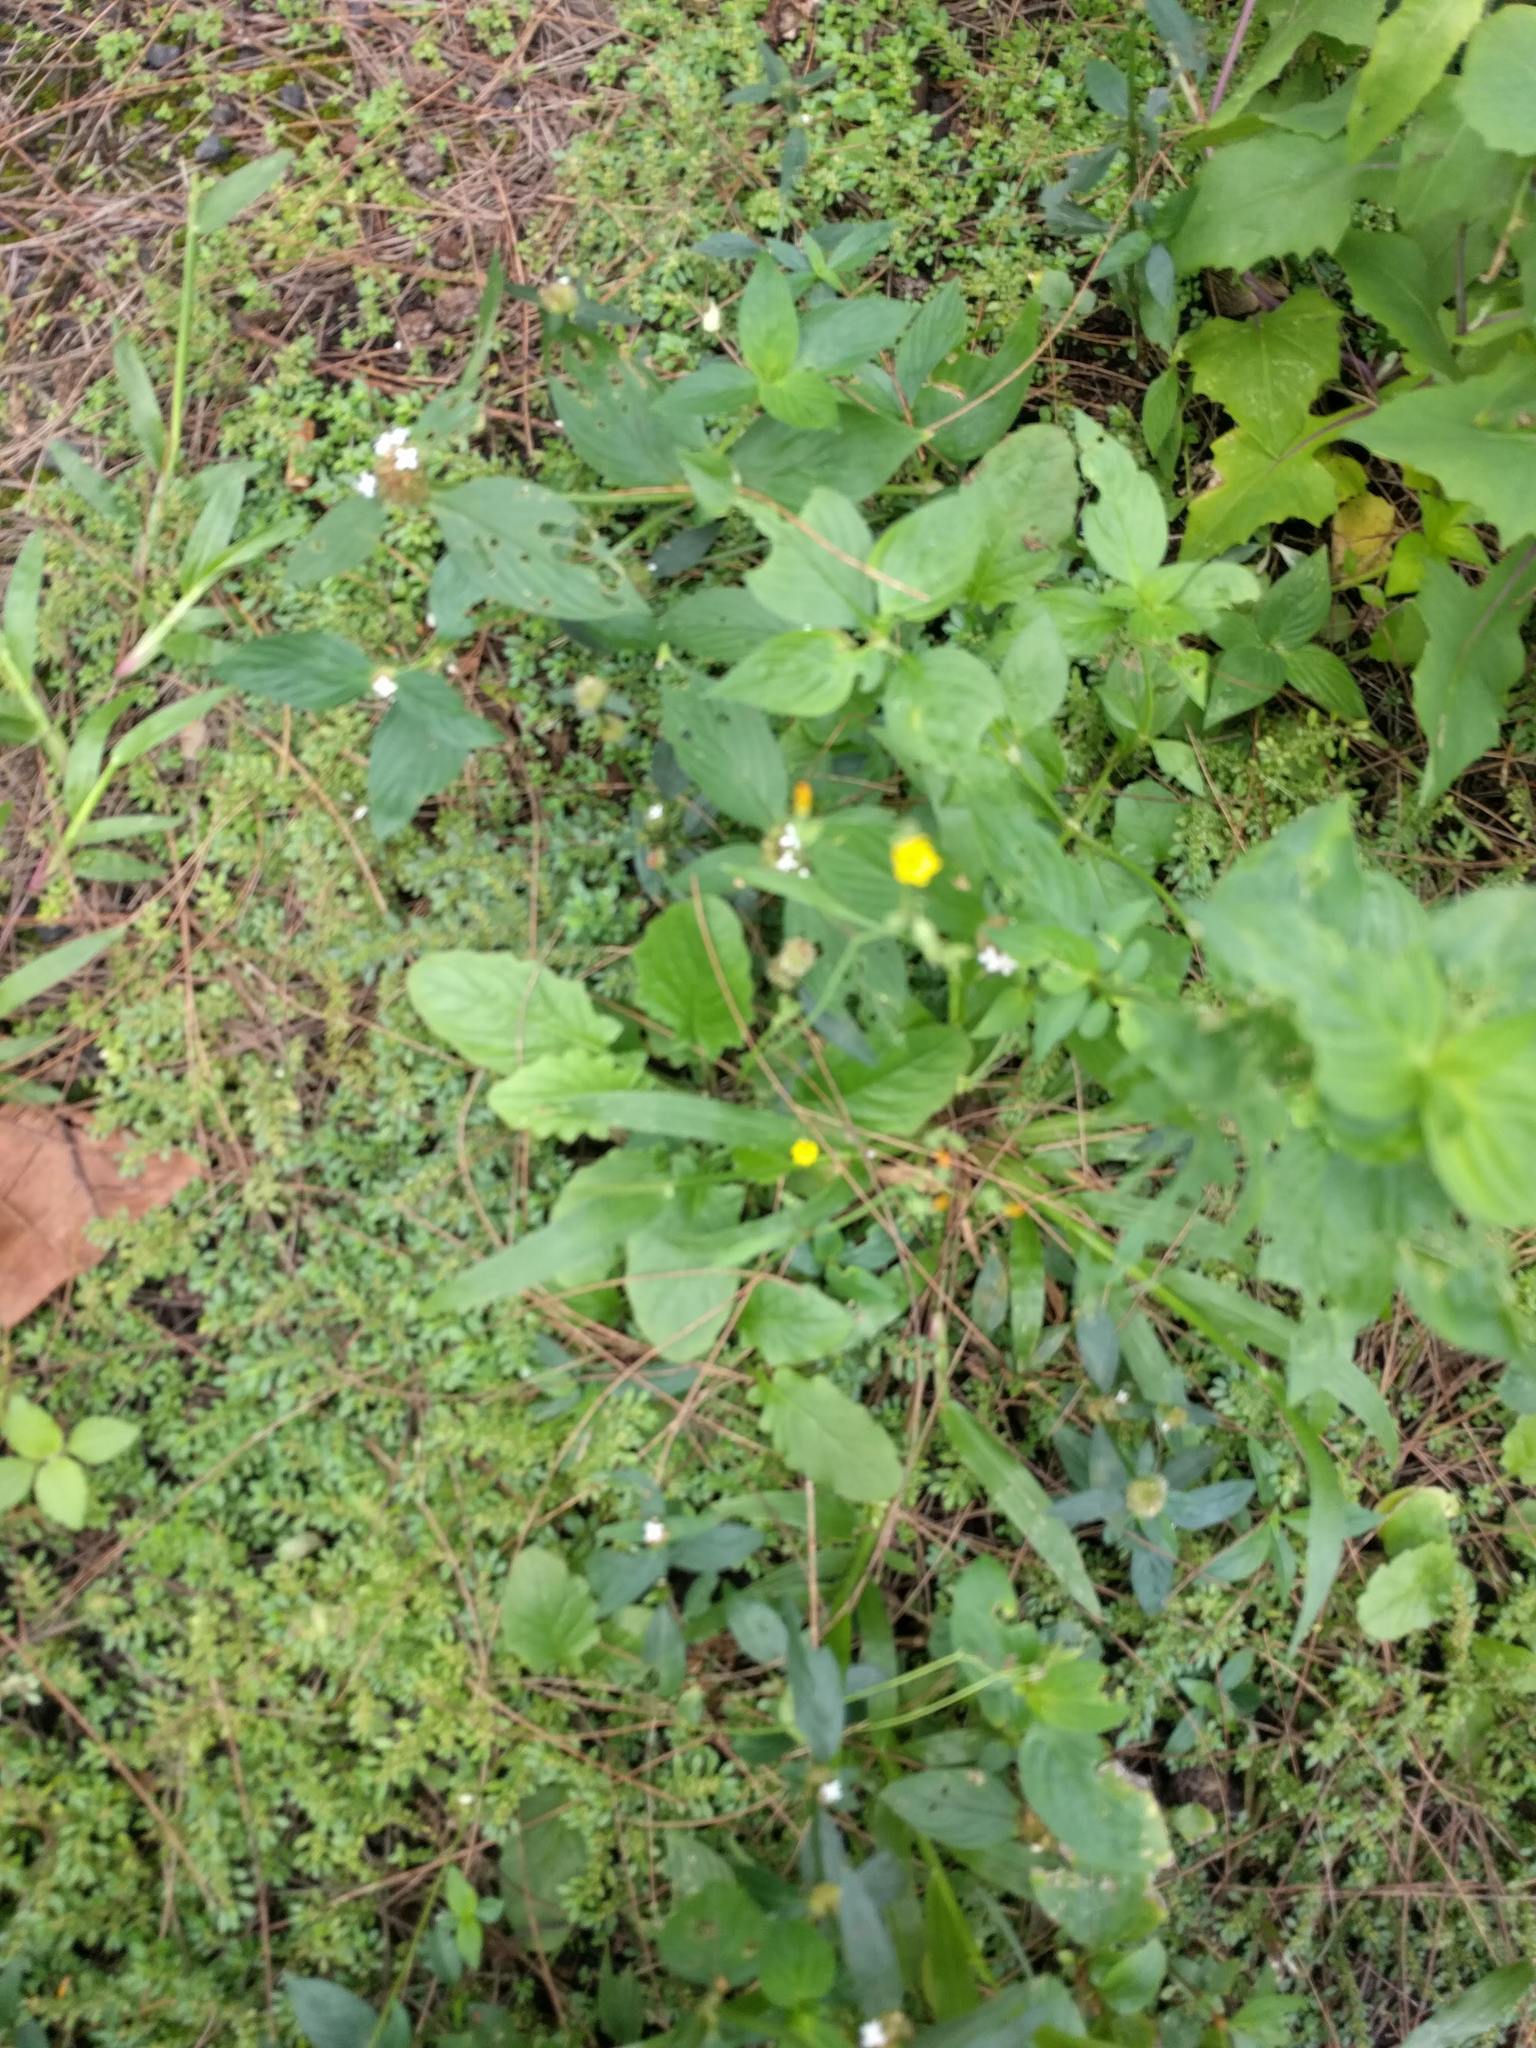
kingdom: Plantae
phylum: Tracheophyta
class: Magnoliopsida
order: Asterales
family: Asteraceae
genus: Youngia
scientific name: Youngia japonica
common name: Oriental false hawksbeard
